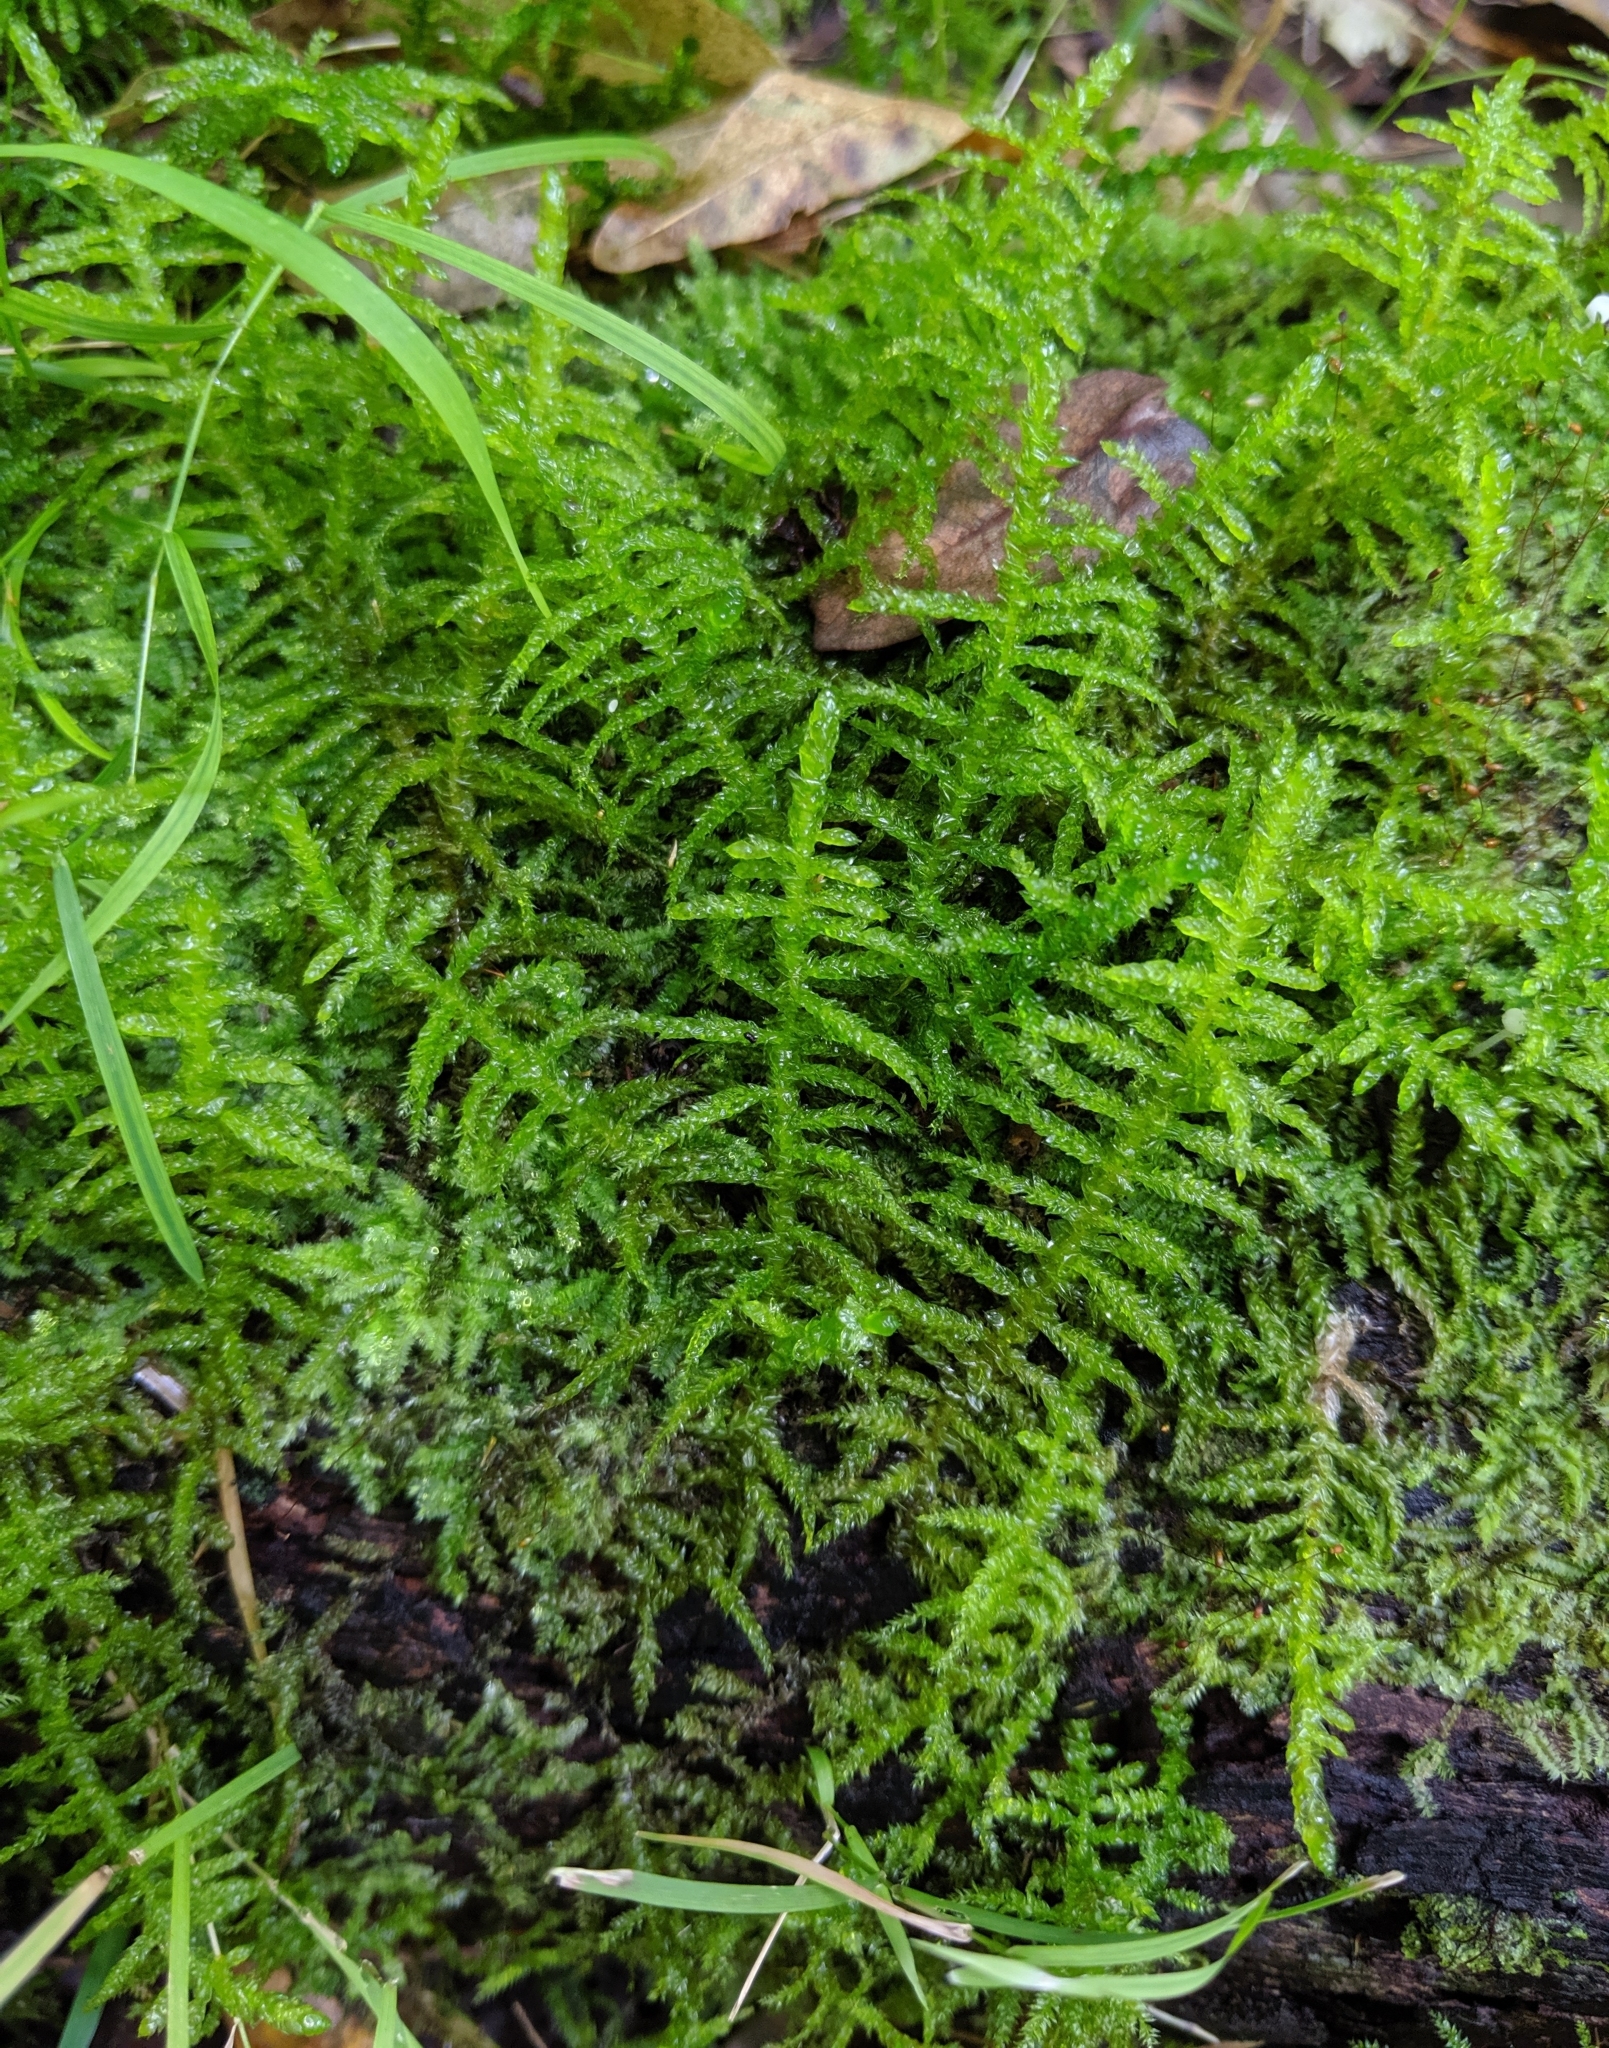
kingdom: Plantae
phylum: Bryophyta
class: Bryopsida
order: Hypnales
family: Brachytheciaceae
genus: Pseudoscleropodium
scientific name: Pseudoscleropodium purum
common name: Neat feather-moss
